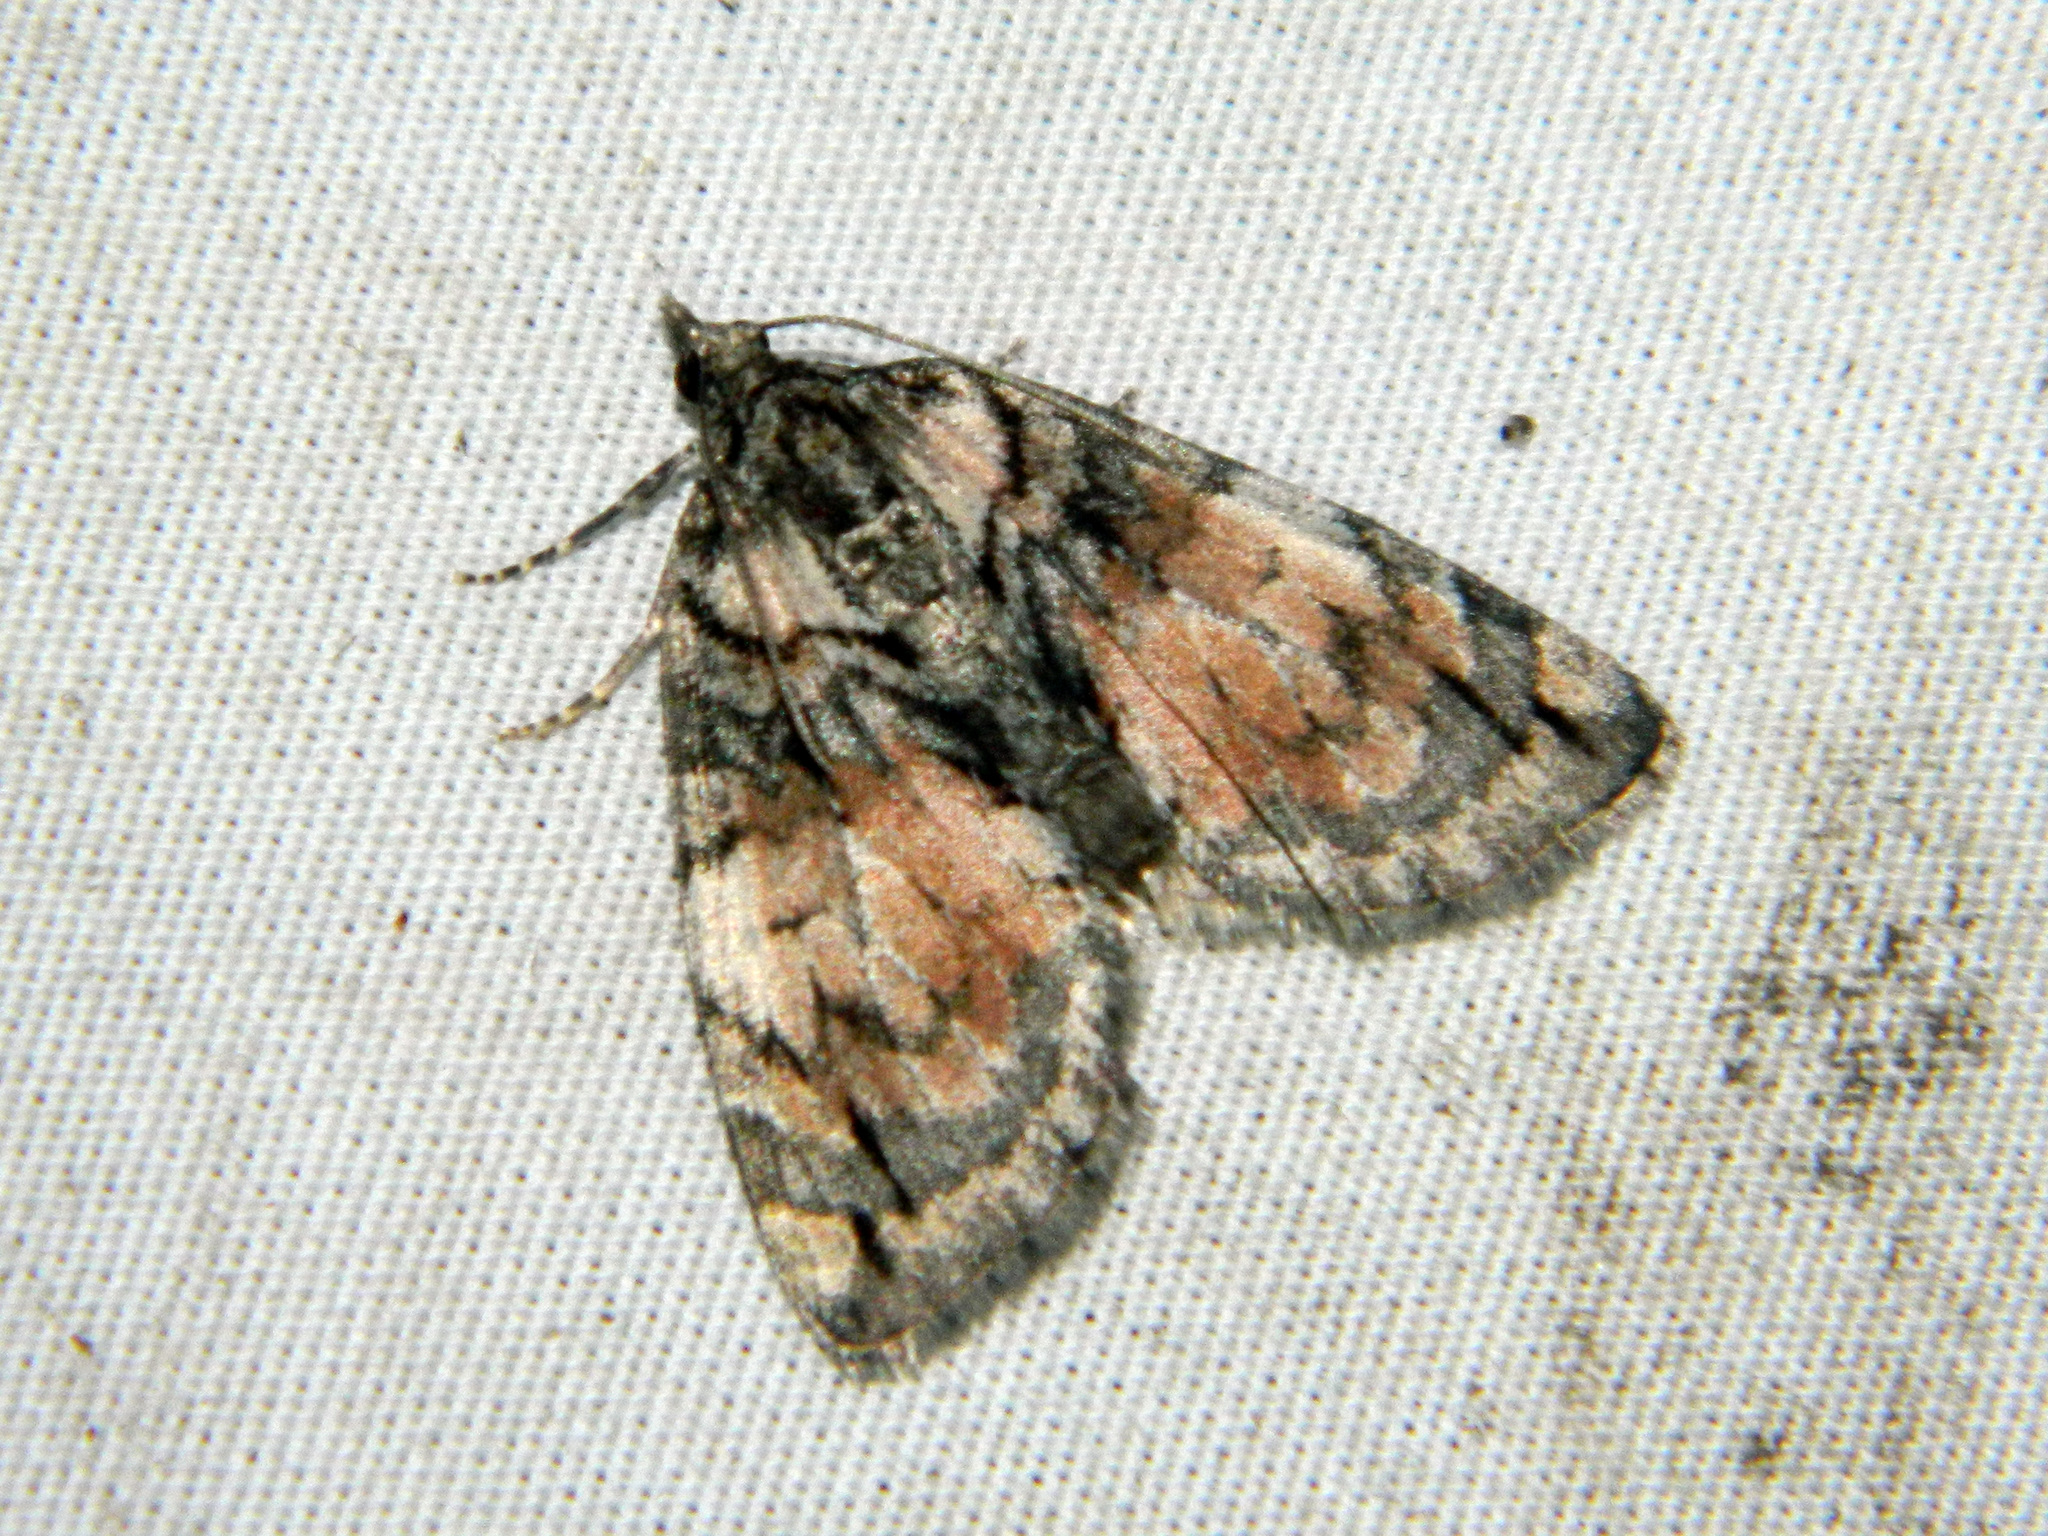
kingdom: Animalia
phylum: Arthropoda
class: Insecta
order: Lepidoptera
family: Geometridae
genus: Hydriomena
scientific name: Hydriomena perfracta
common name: Shattered hydriomena moth
